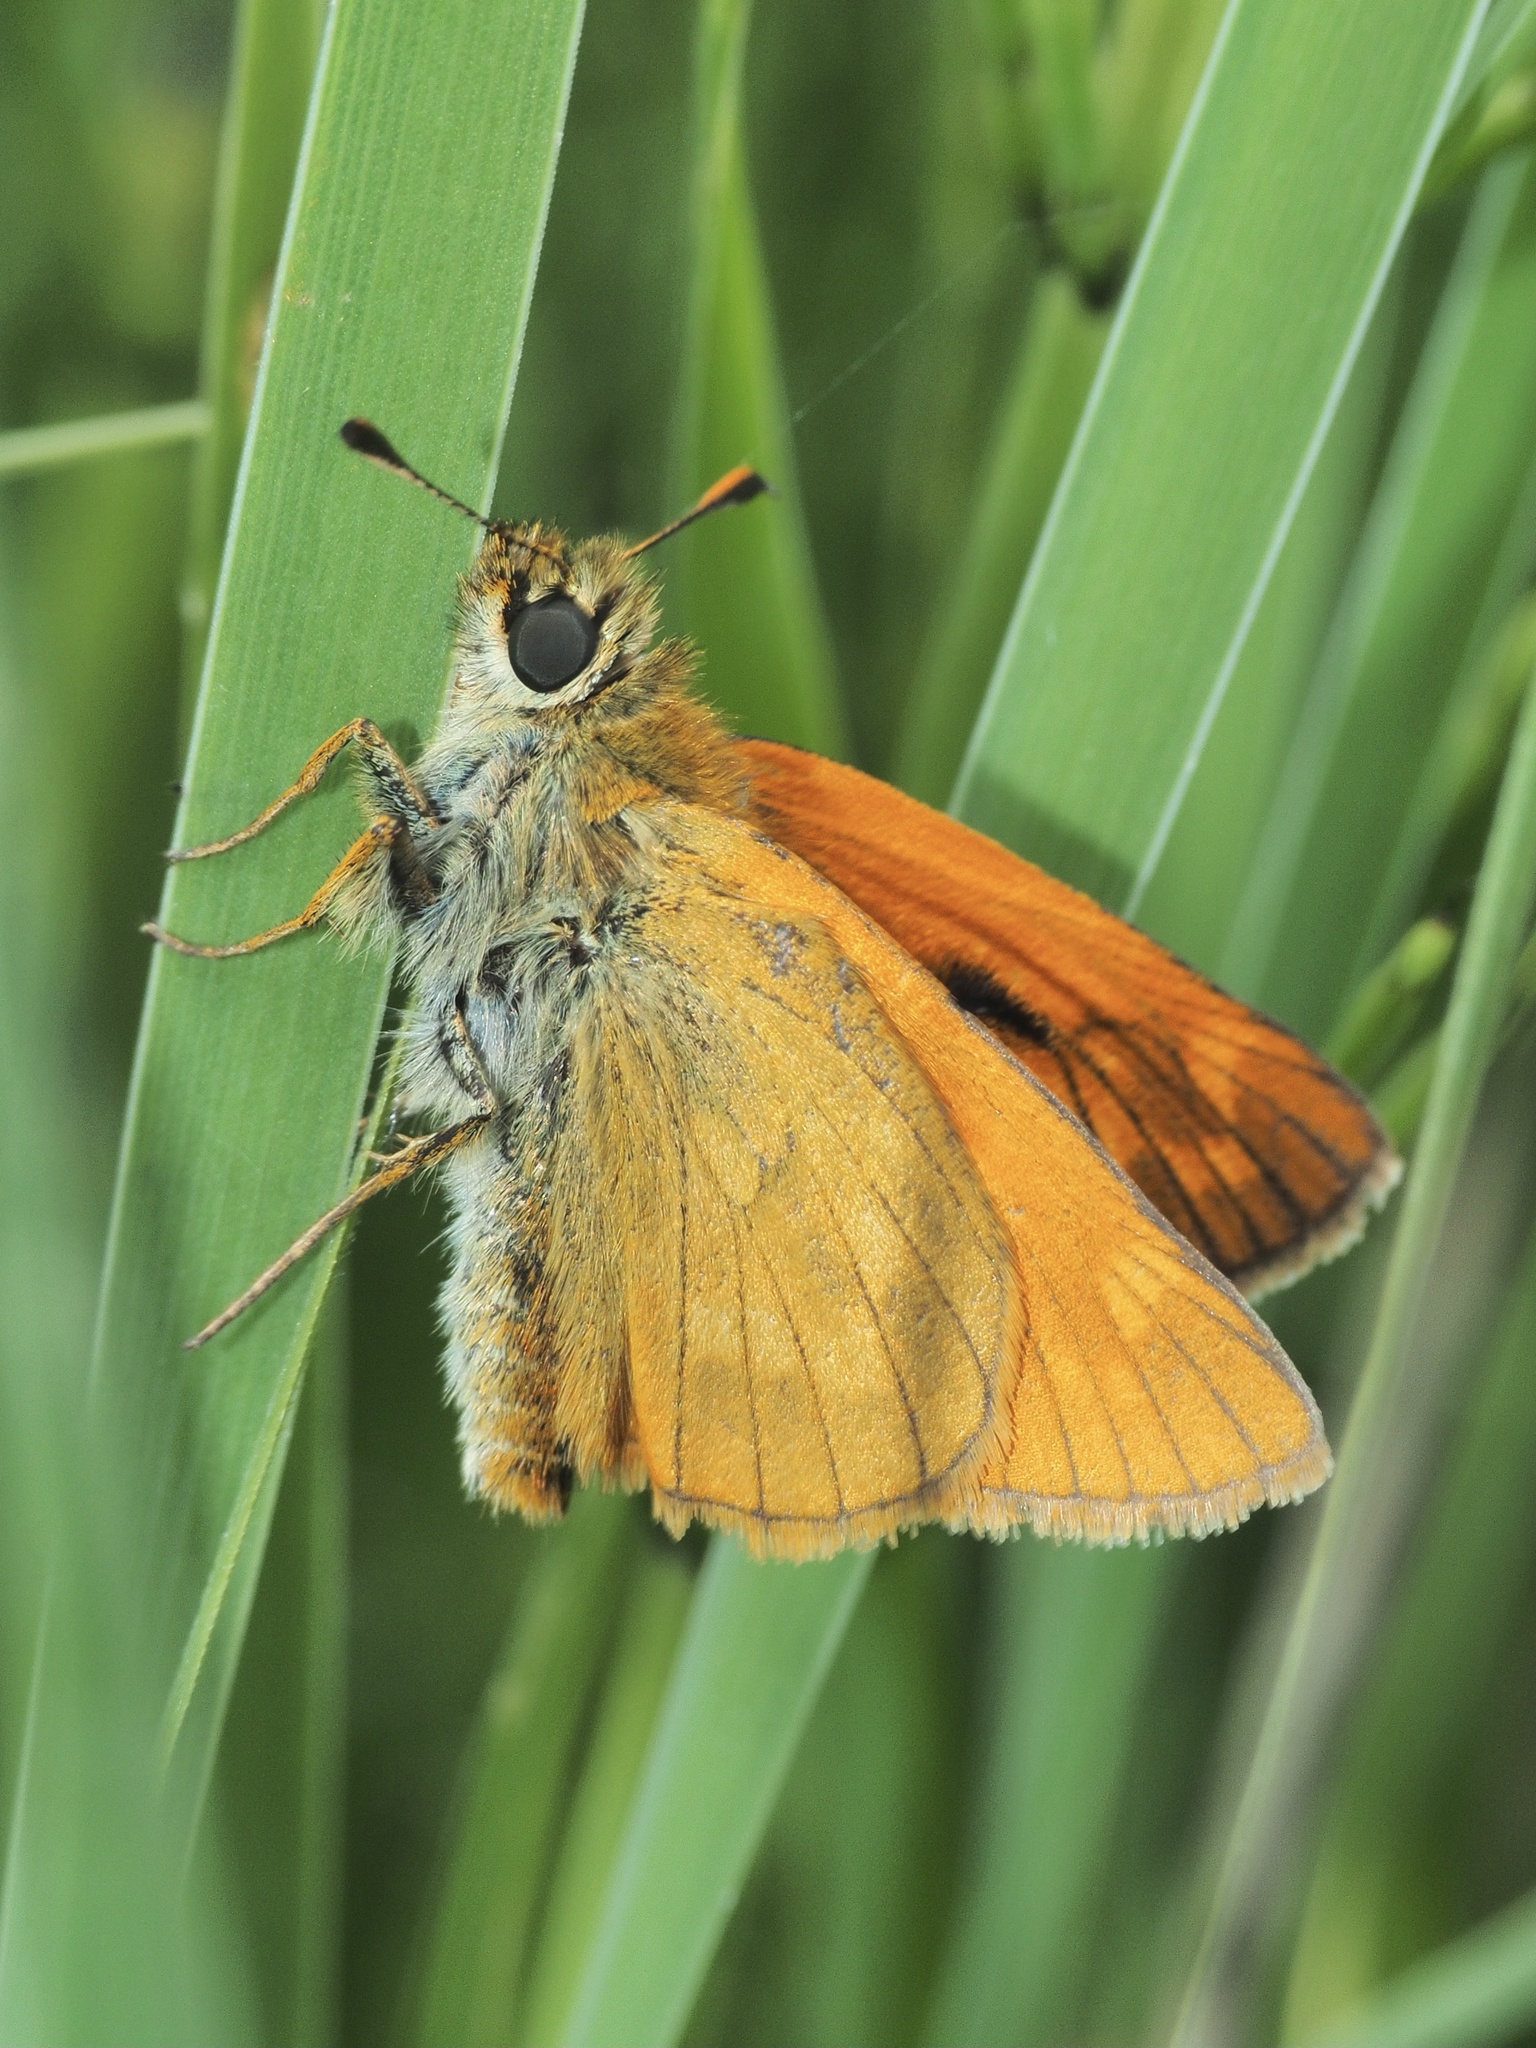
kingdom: Animalia
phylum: Arthropoda
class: Insecta
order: Lepidoptera
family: Hesperiidae
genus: Ochlodes
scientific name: Ochlodes venata
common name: Large skipper
